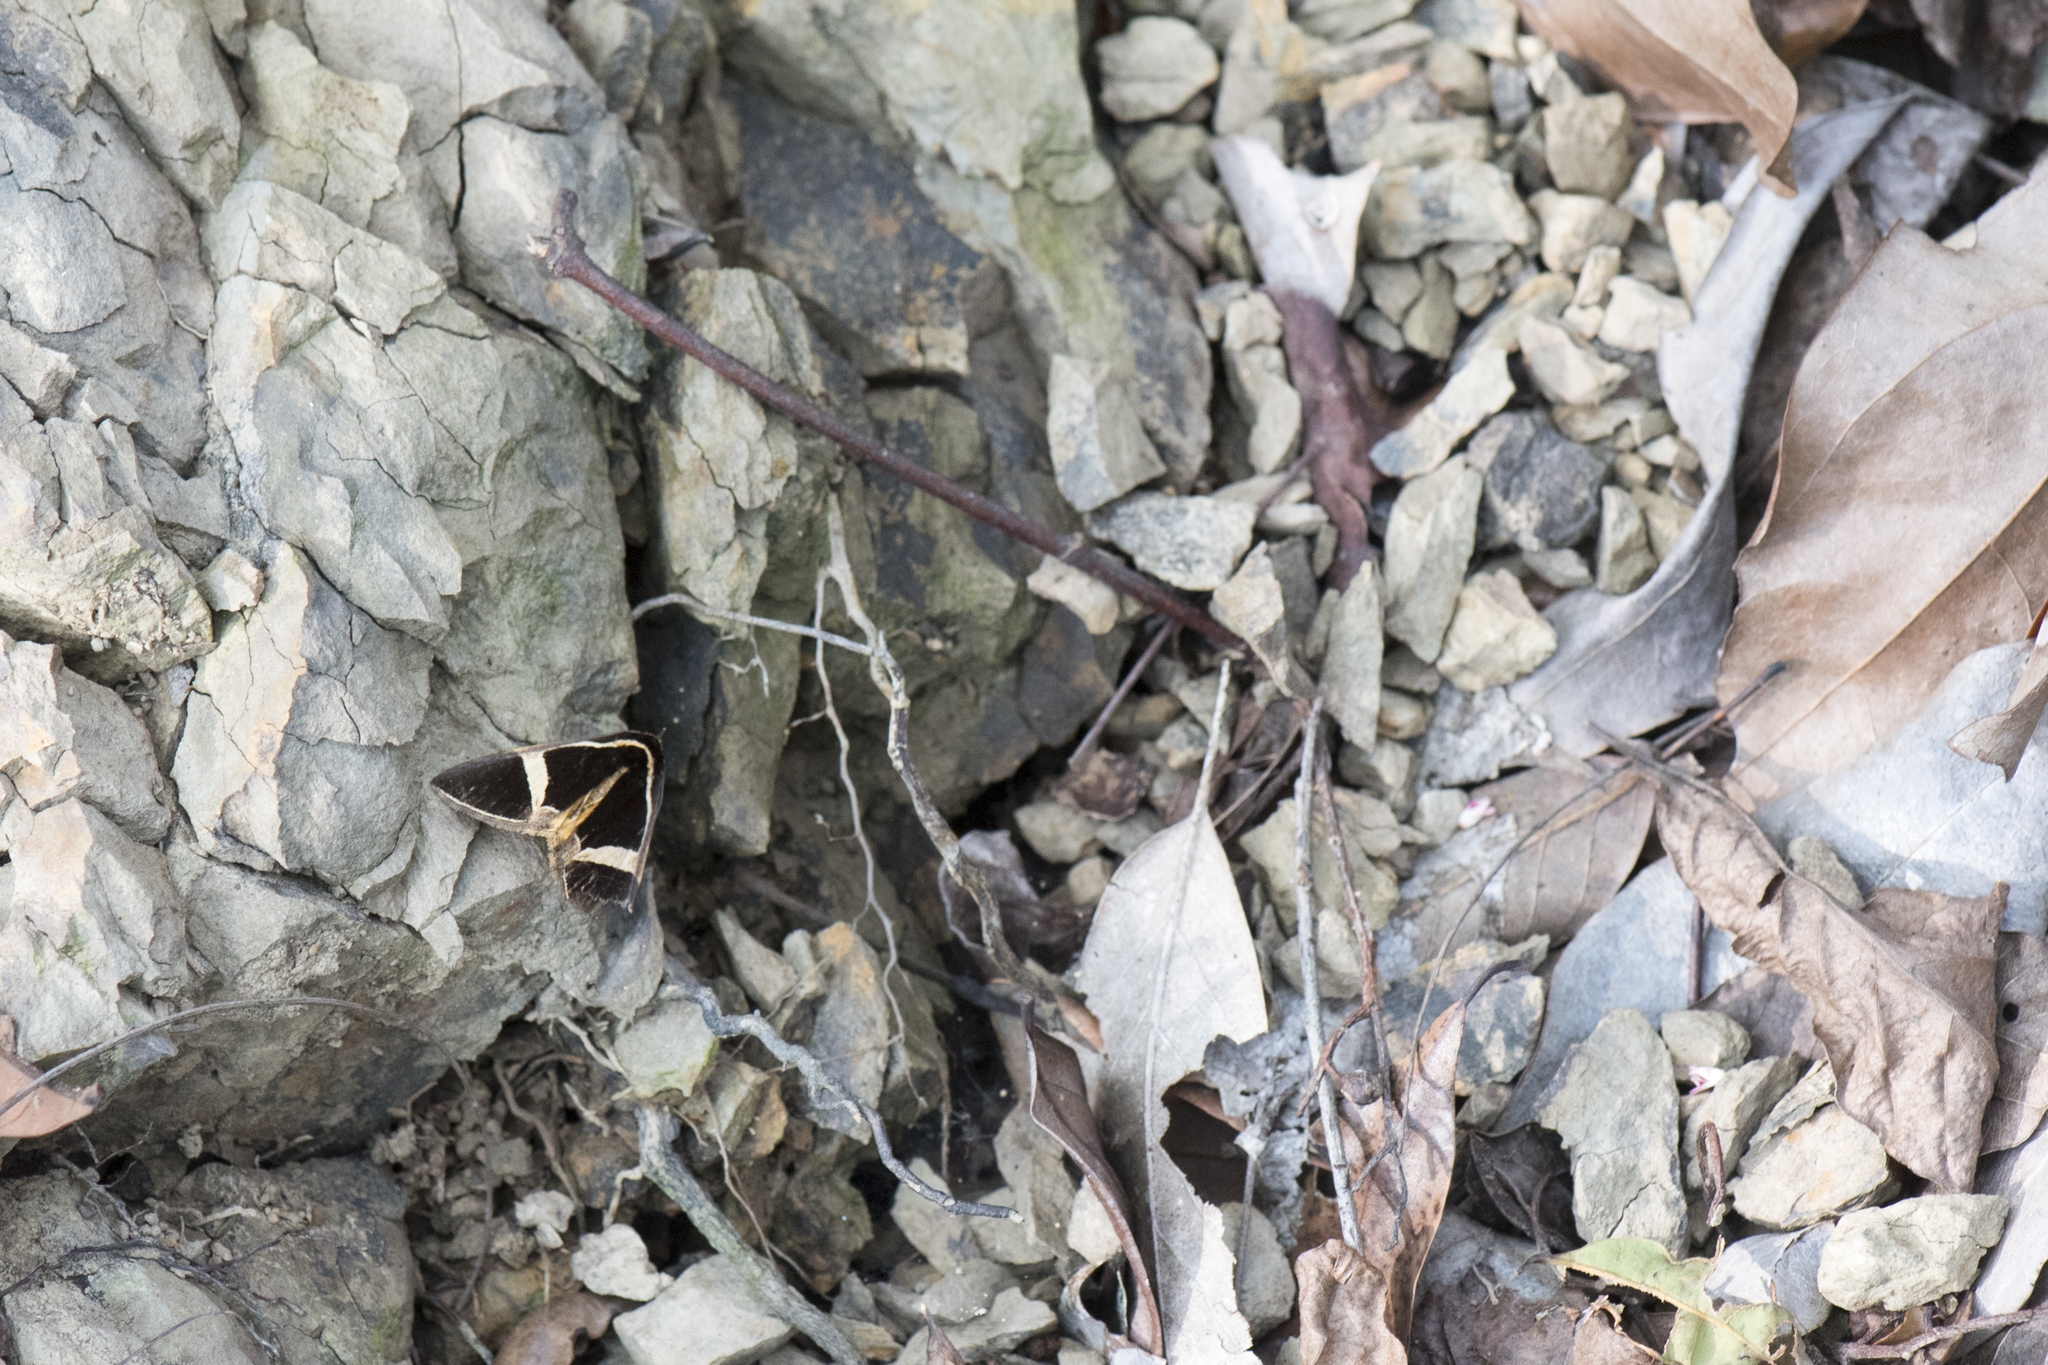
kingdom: Animalia
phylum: Arthropoda
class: Insecta
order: Lepidoptera
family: Erebidae
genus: Fodina
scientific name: Fodina kosemponis
